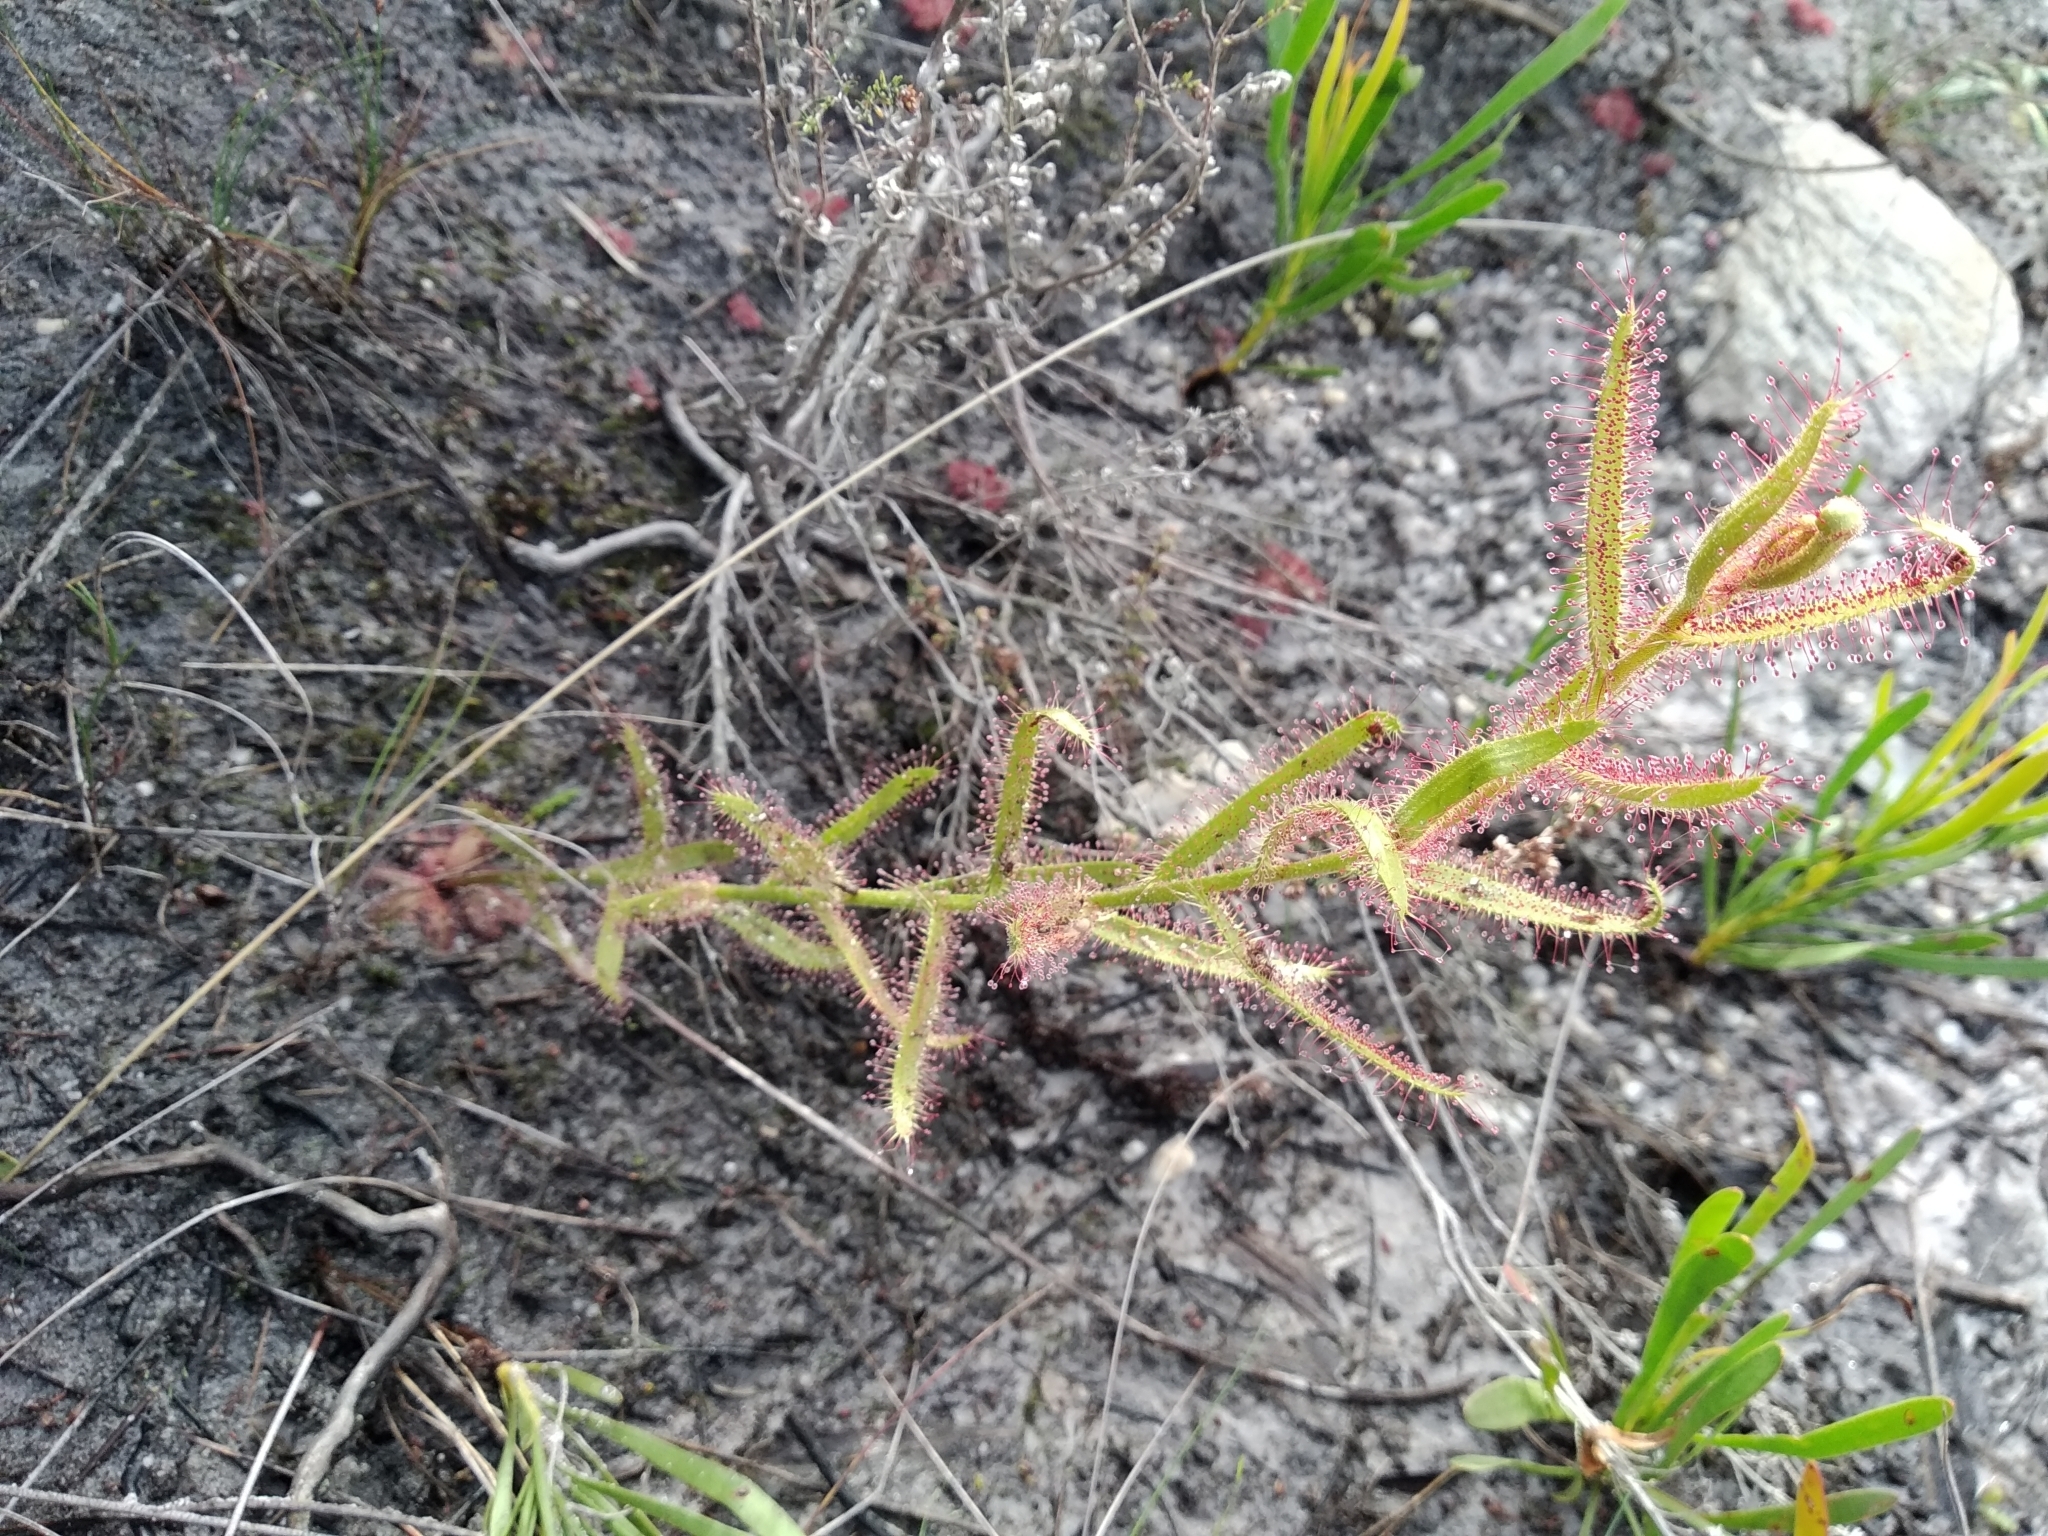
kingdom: Plantae
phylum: Tracheophyta
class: Magnoliopsida
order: Caryophyllales
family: Droseraceae
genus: Drosera
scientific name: Drosera cistiflora
